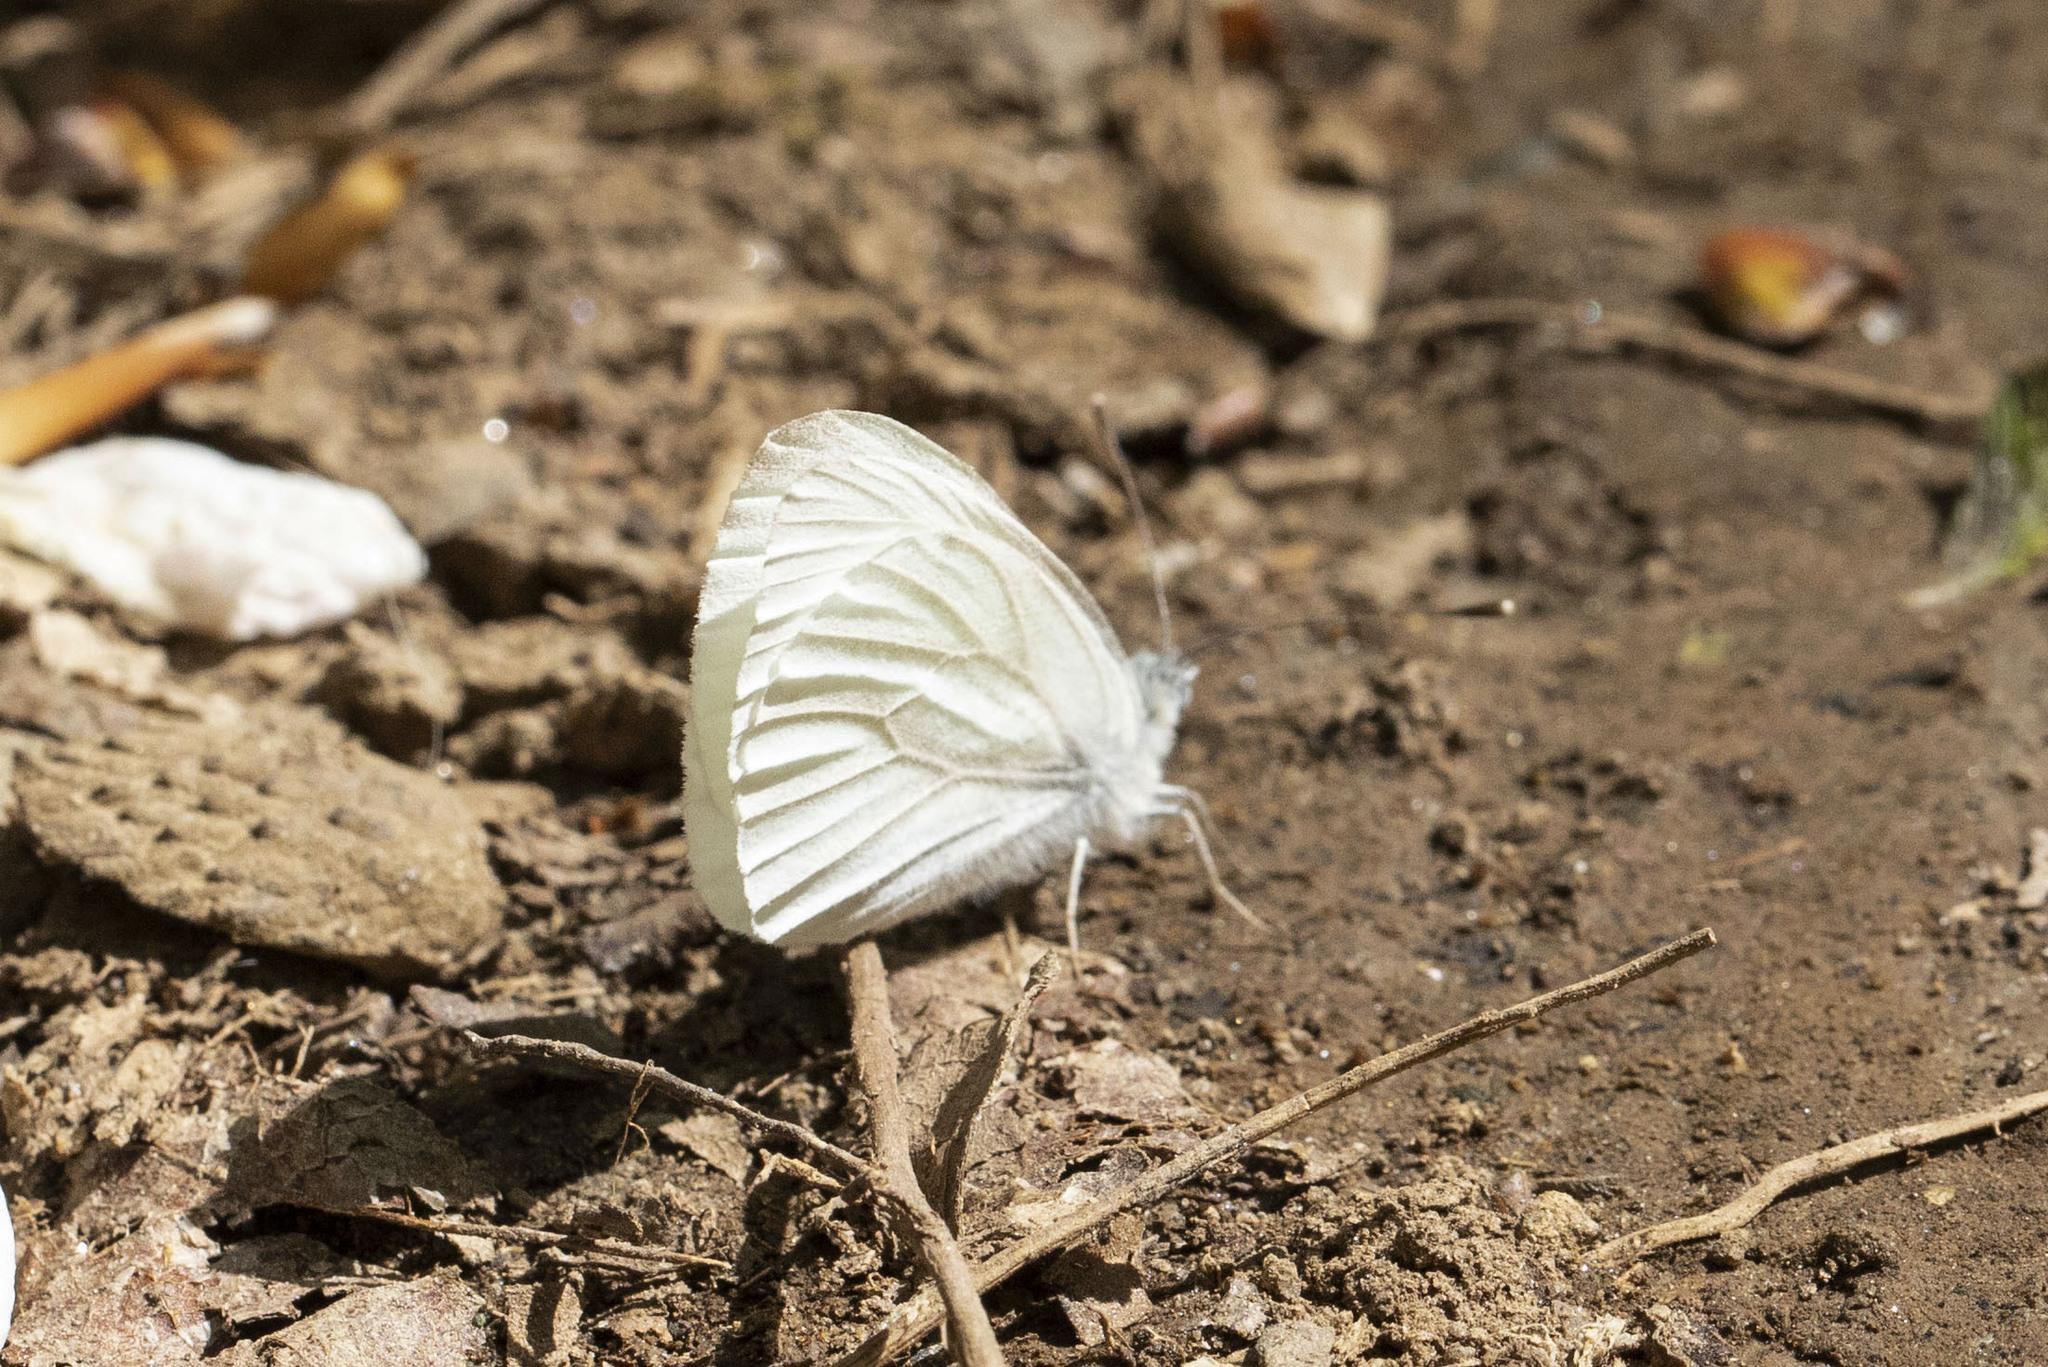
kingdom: Animalia
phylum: Arthropoda
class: Insecta
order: Lepidoptera
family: Pieridae
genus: Pieris
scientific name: Pieris virginiensis
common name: West virginia white
